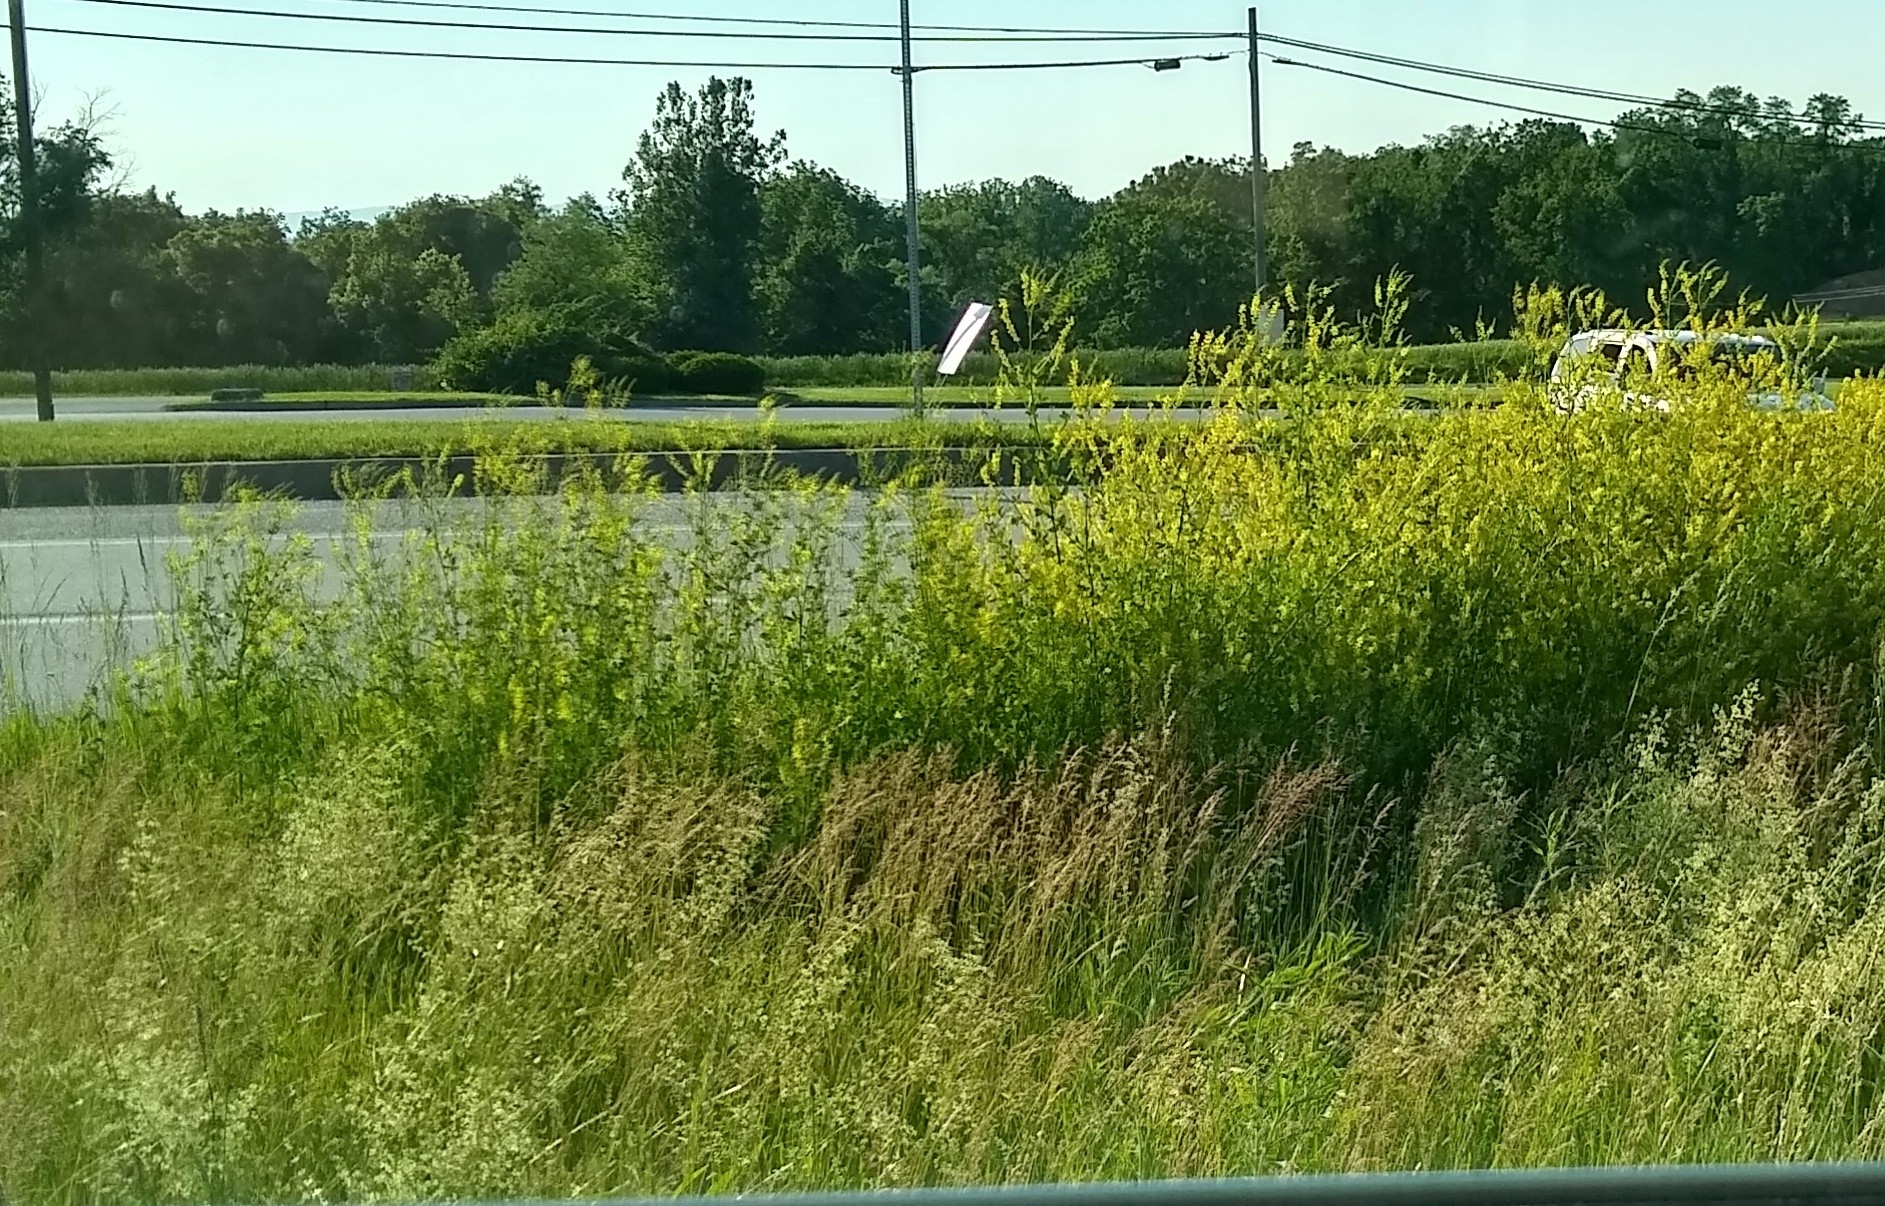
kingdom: Plantae
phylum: Tracheophyta
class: Magnoliopsida
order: Fabales
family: Fabaceae
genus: Melilotus
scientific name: Melilotus officinalis
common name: Sweetclover
